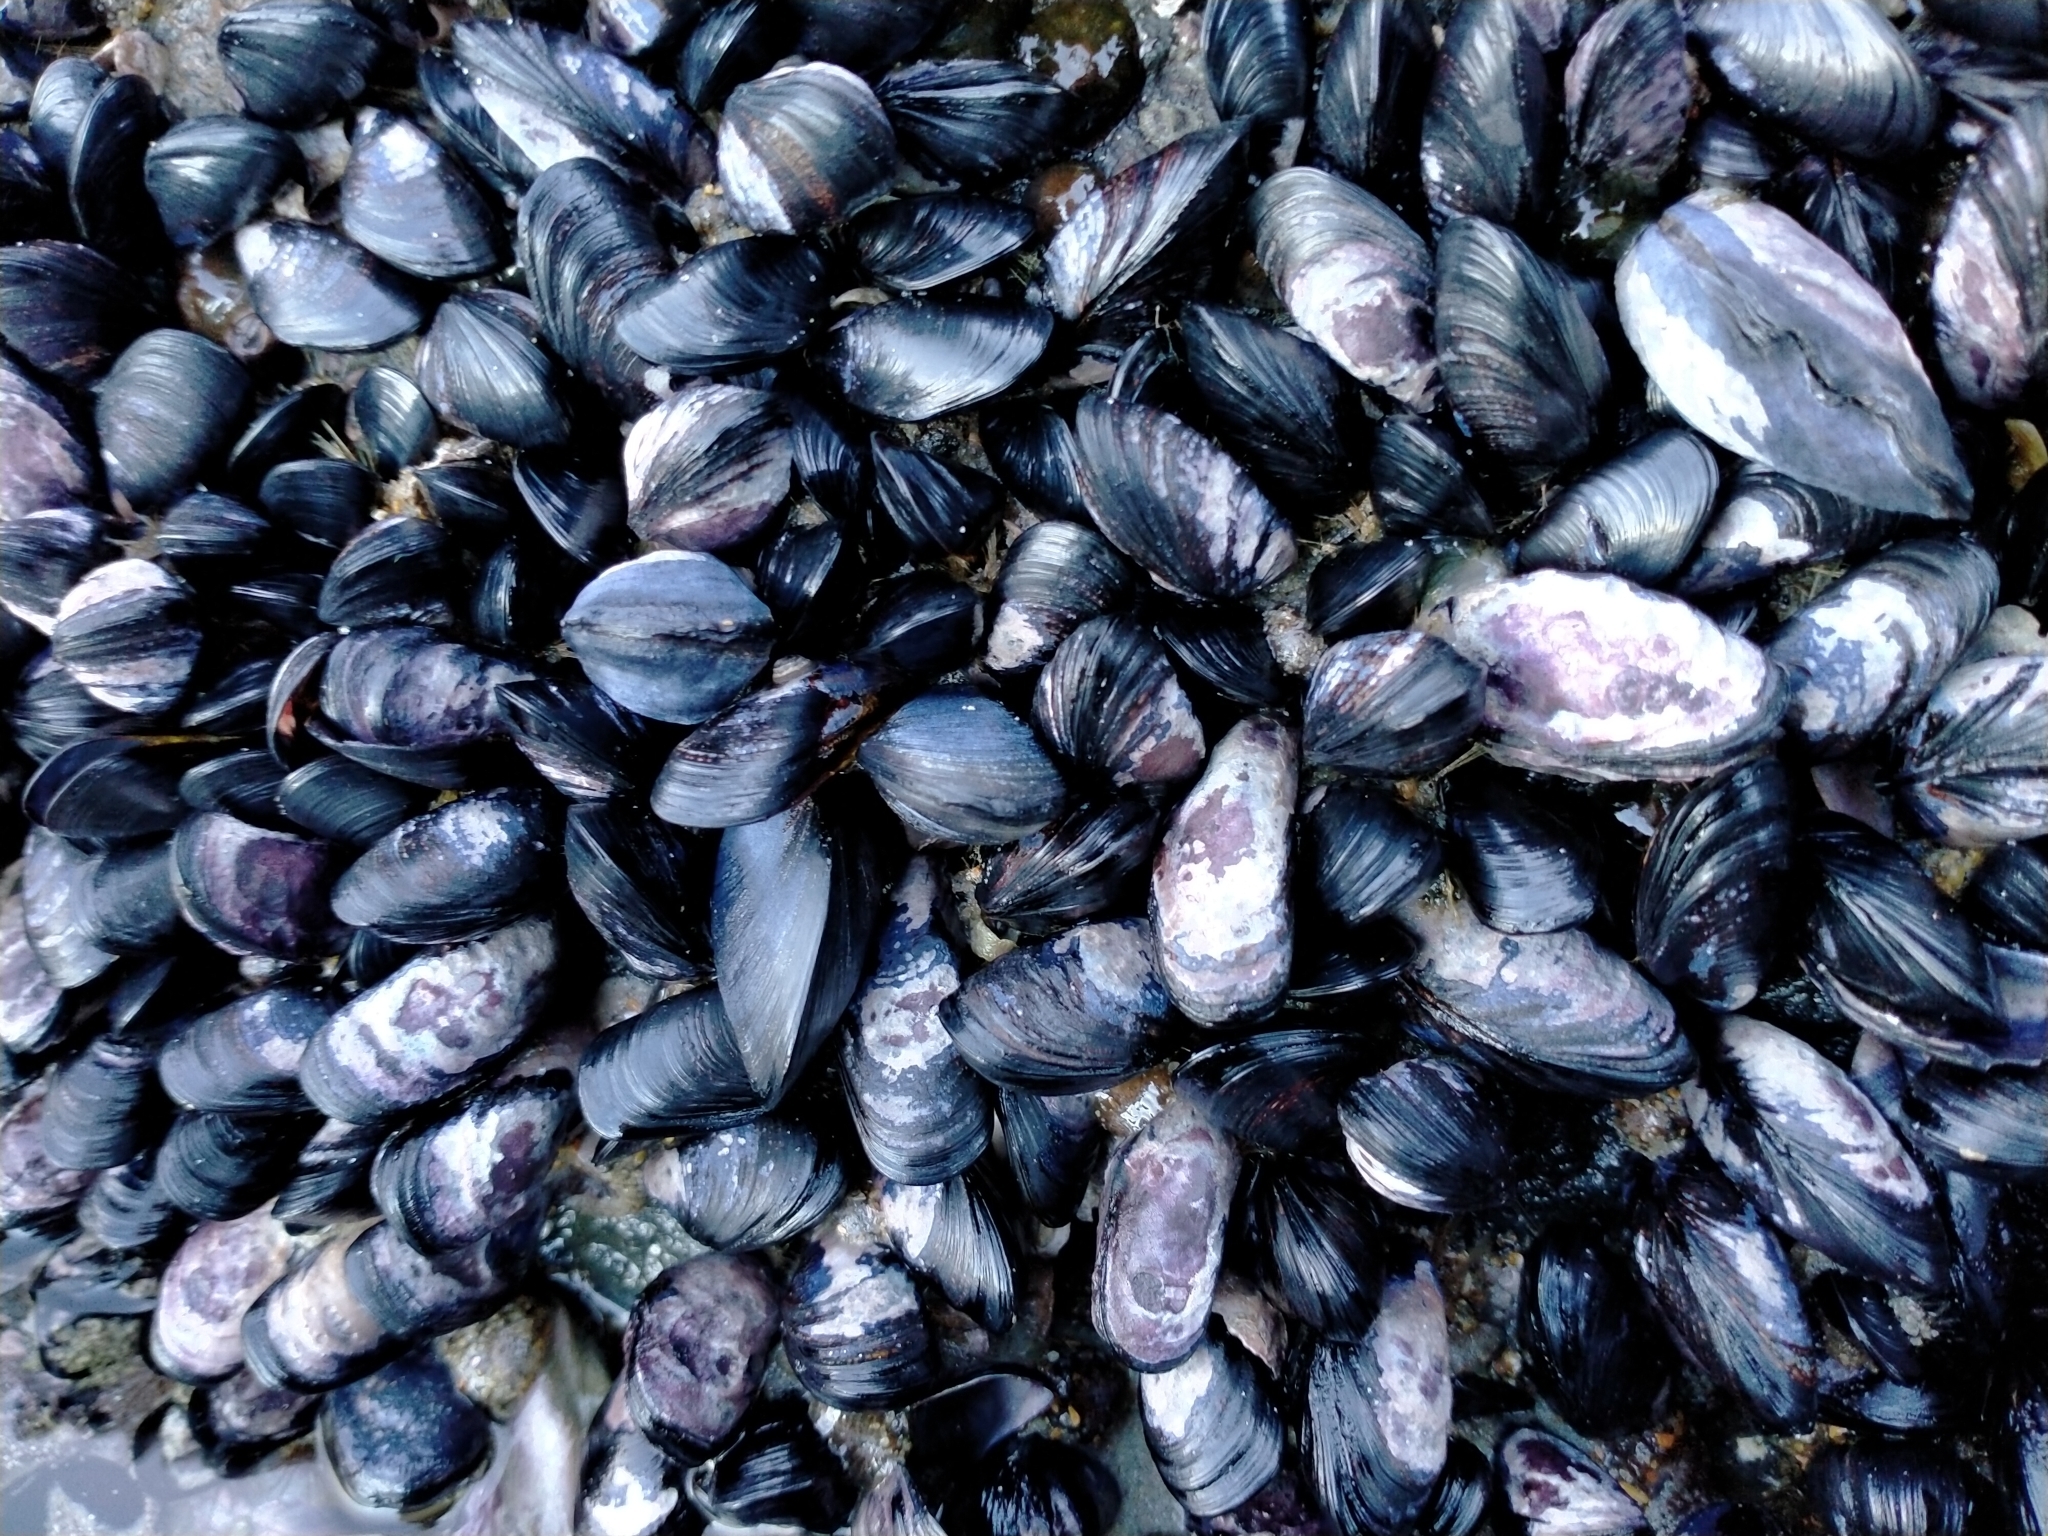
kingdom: Animalia
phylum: Mollusca
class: Bivalvia
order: Mytilida
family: Mytilidae
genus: Mytilus
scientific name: Mytilus planulatus
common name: Australian mussel
